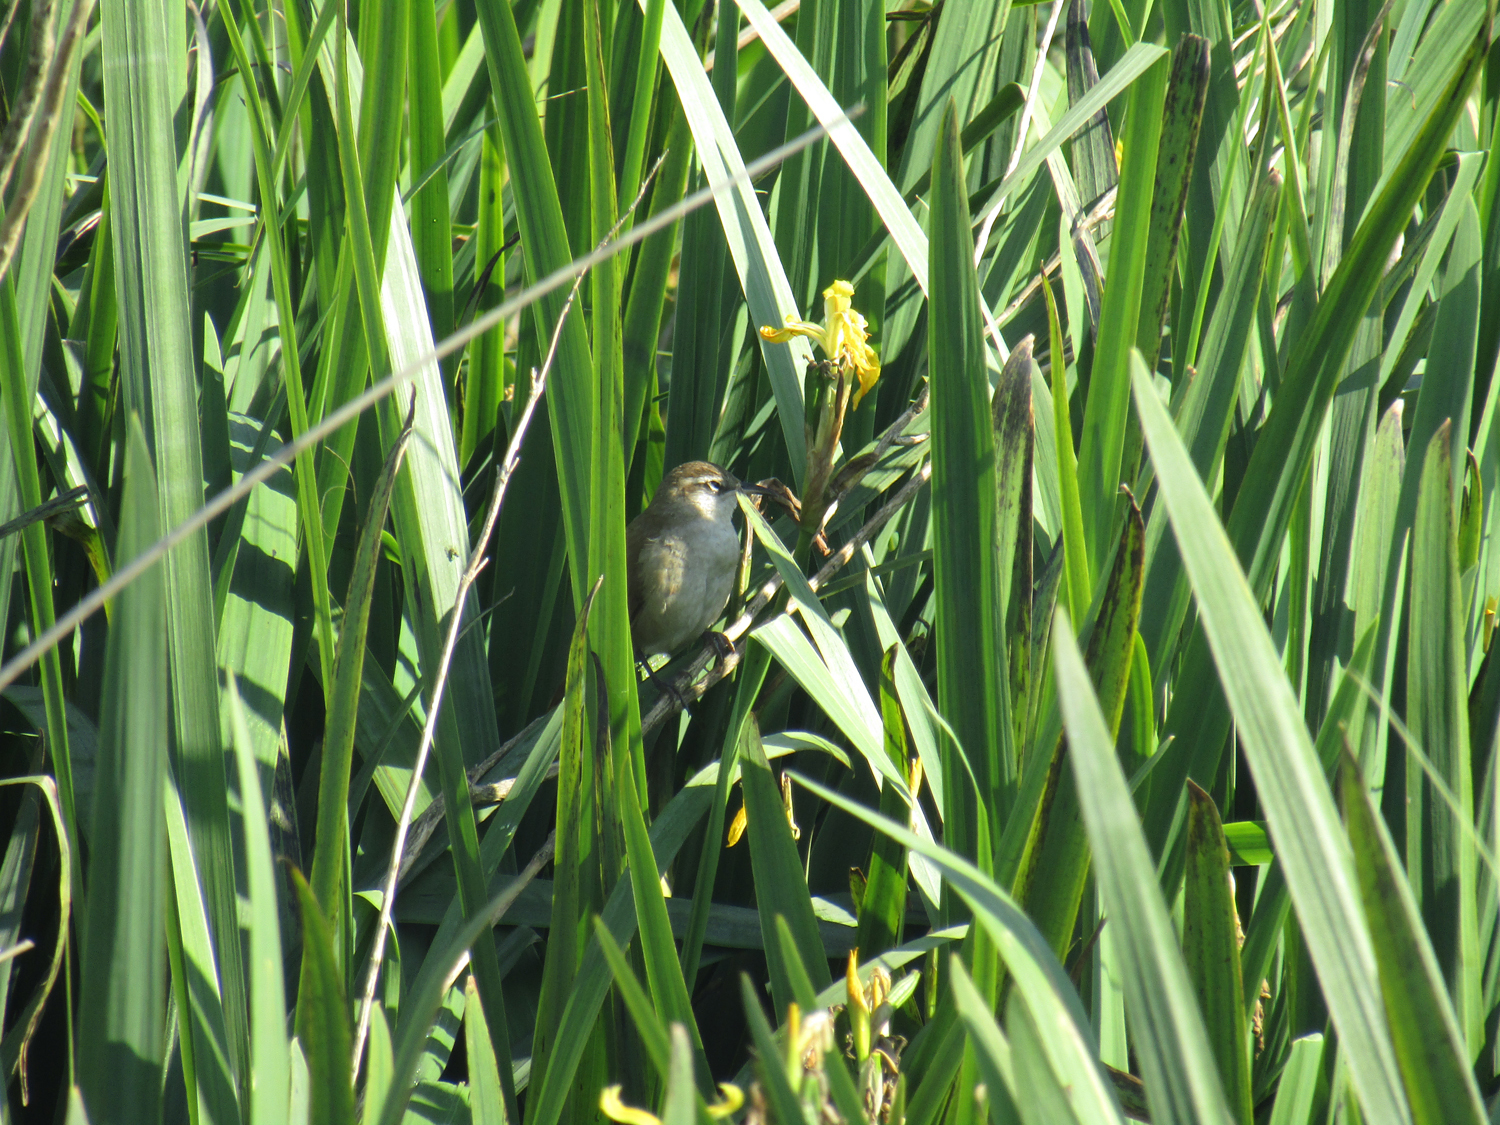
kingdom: Animalia
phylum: Chordata
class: Aves
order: Passeriformes
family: Furnariidae
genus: Limnornis
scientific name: Limnornis curvirostris
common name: Curve-billed reedhaunter
